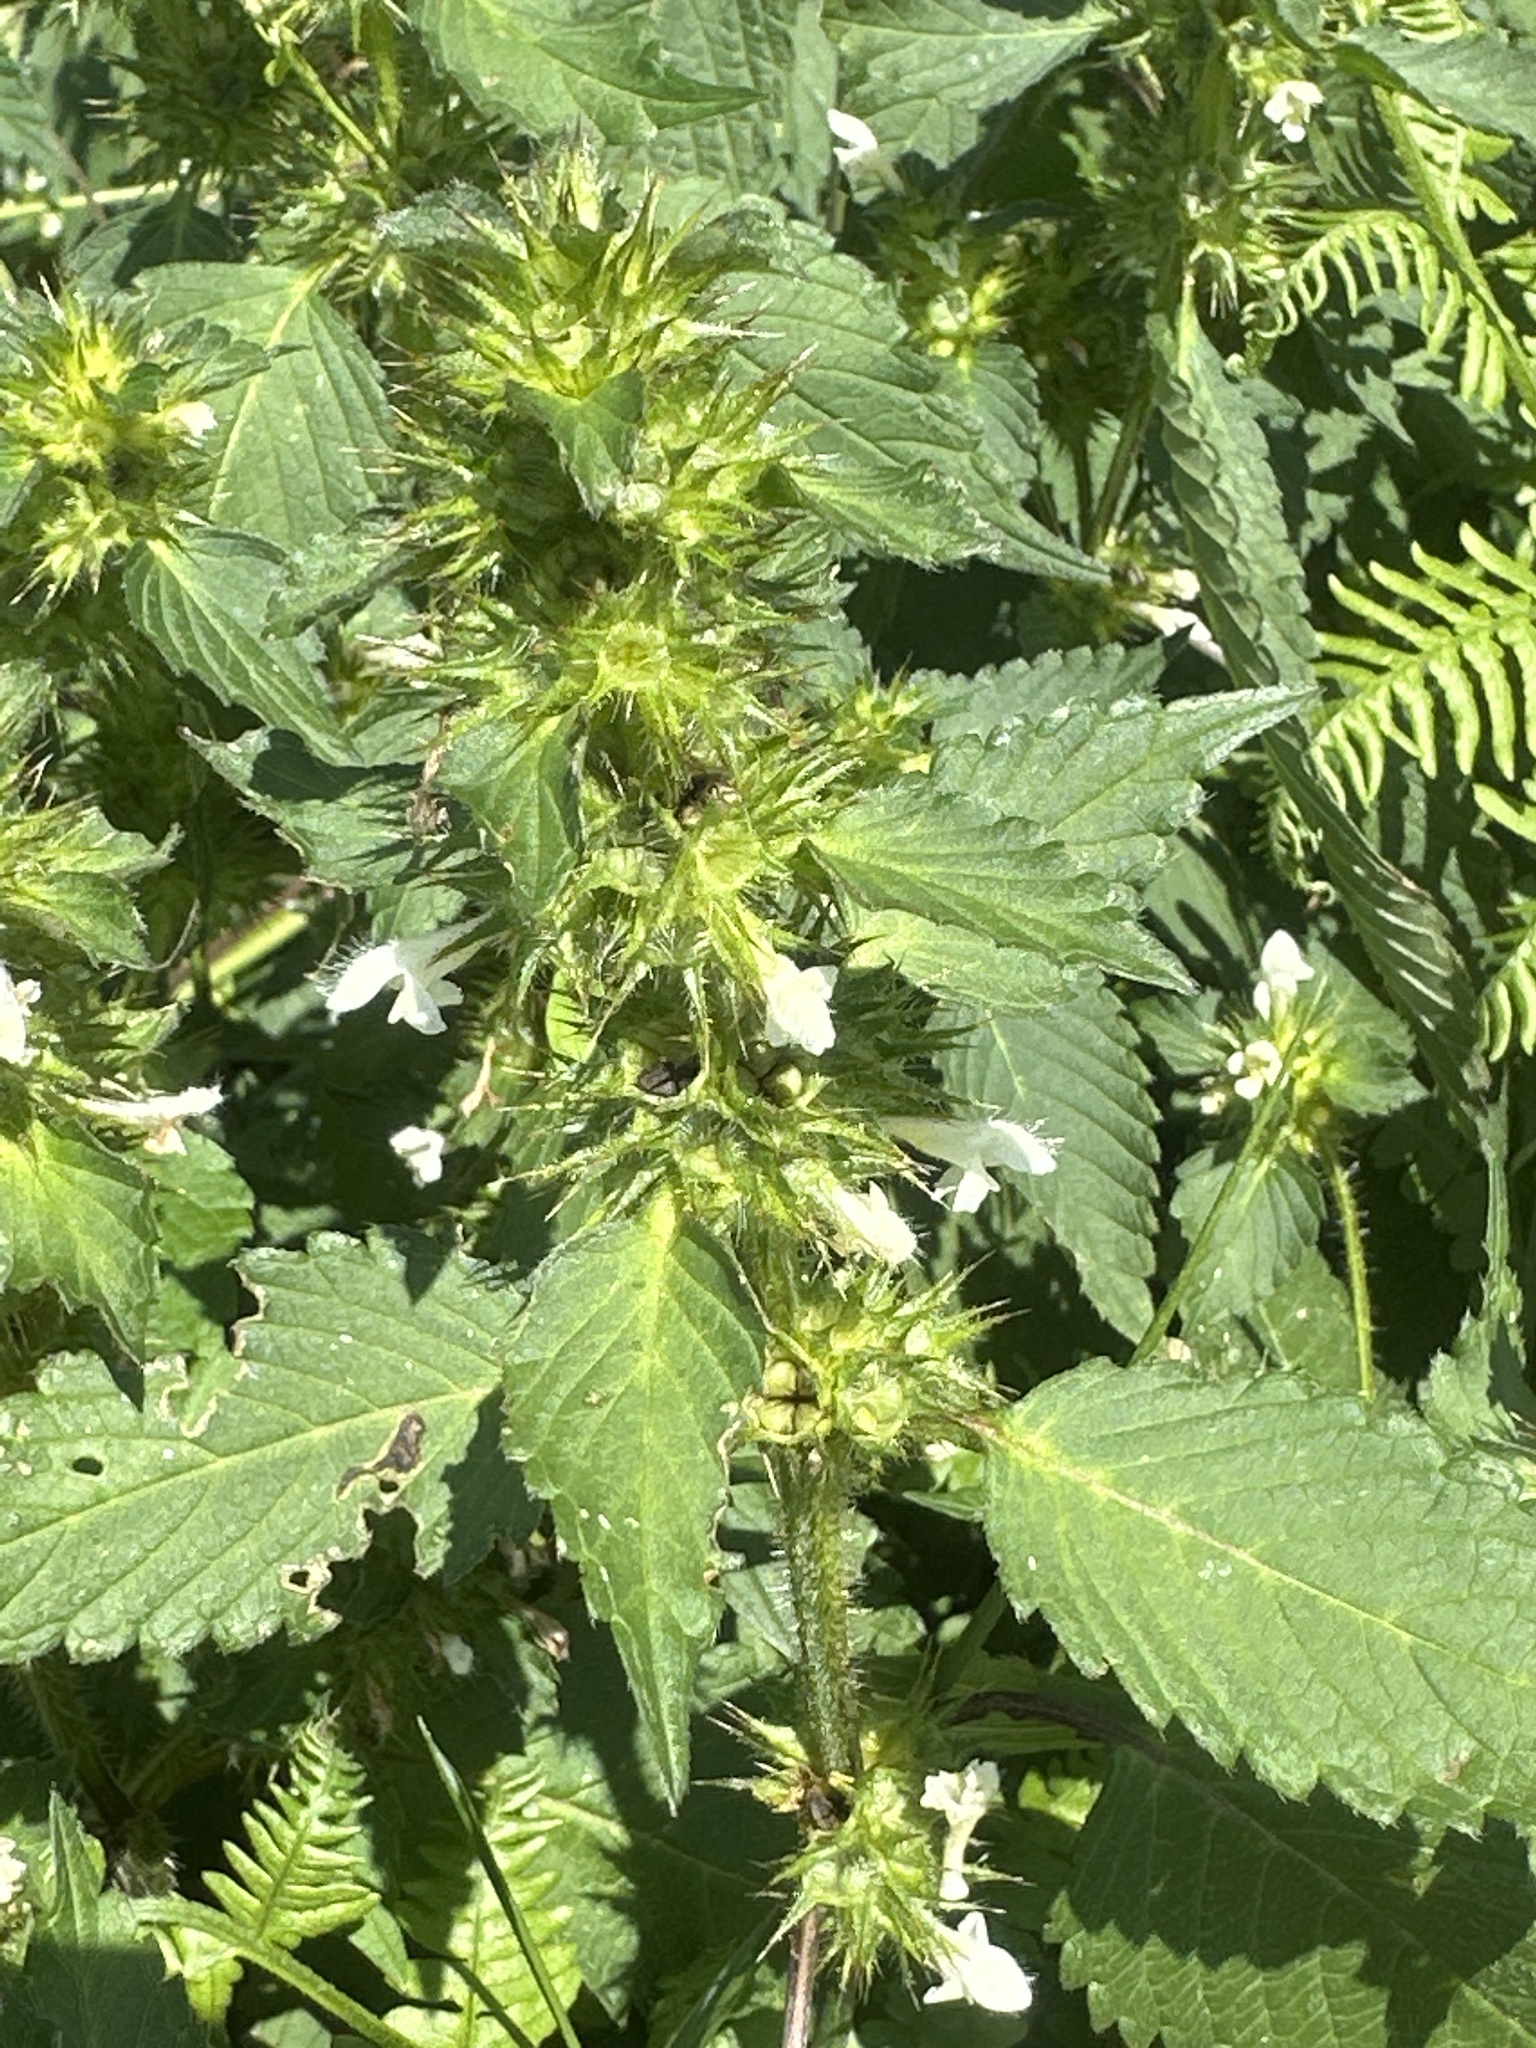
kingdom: Plantae
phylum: Tracheophyta
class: Magnoliopsida
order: Lamiales
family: Lamiaceae
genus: Galeopsis
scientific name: Galeopsis tetrahit
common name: Common hemp-nettle
